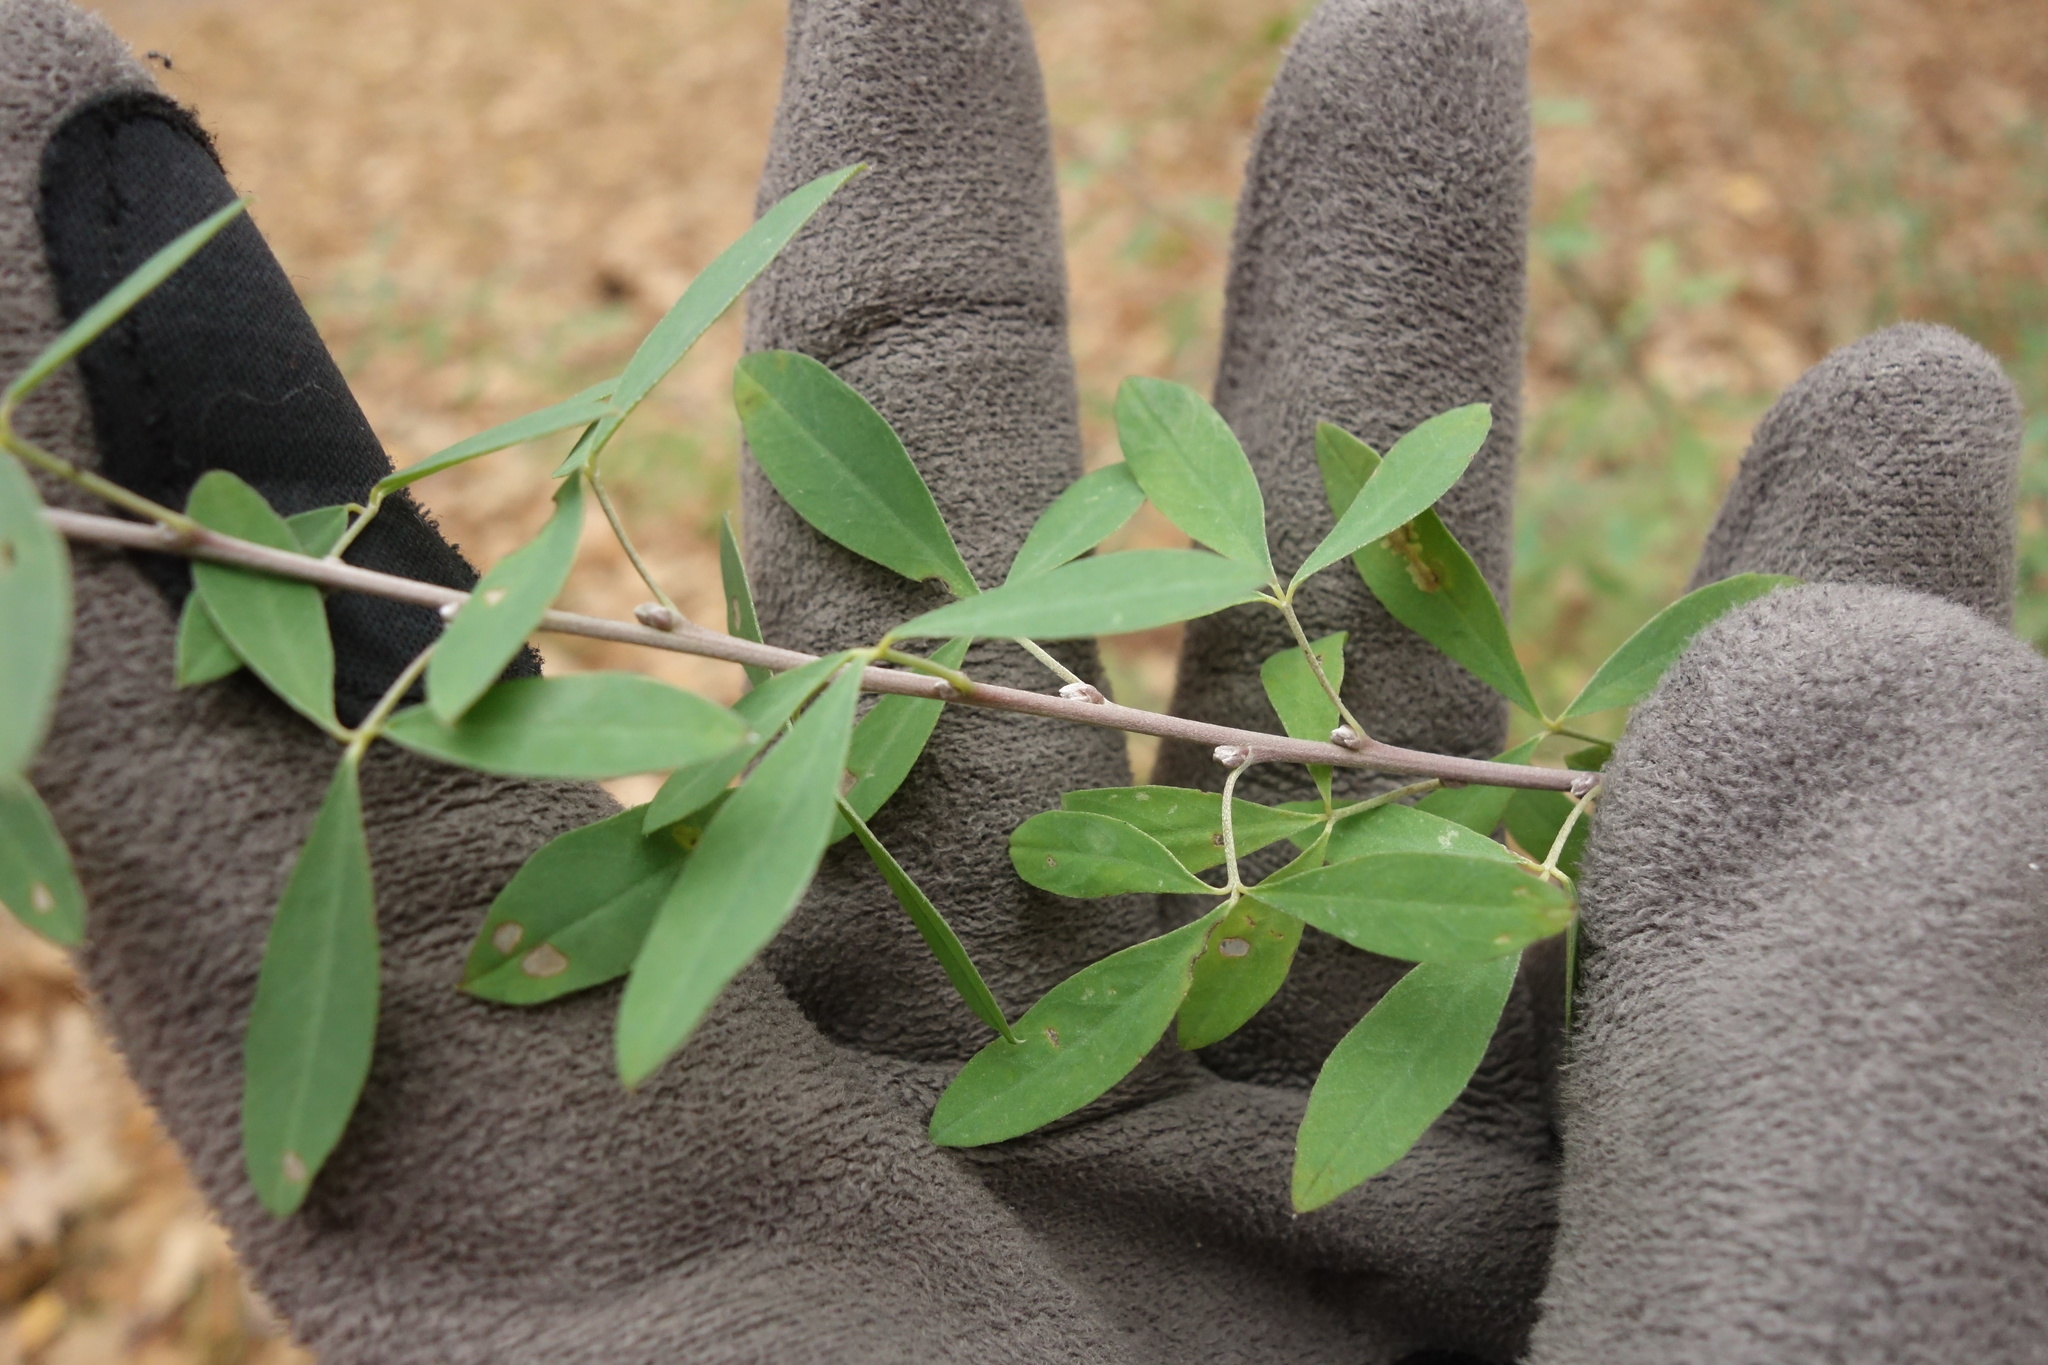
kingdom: Plantae
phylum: Tracheophyta
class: Magnoliopsida
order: Fabales
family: Fabaceae
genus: Chamaecytisus
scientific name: Chamaecytisus ruthenicus
